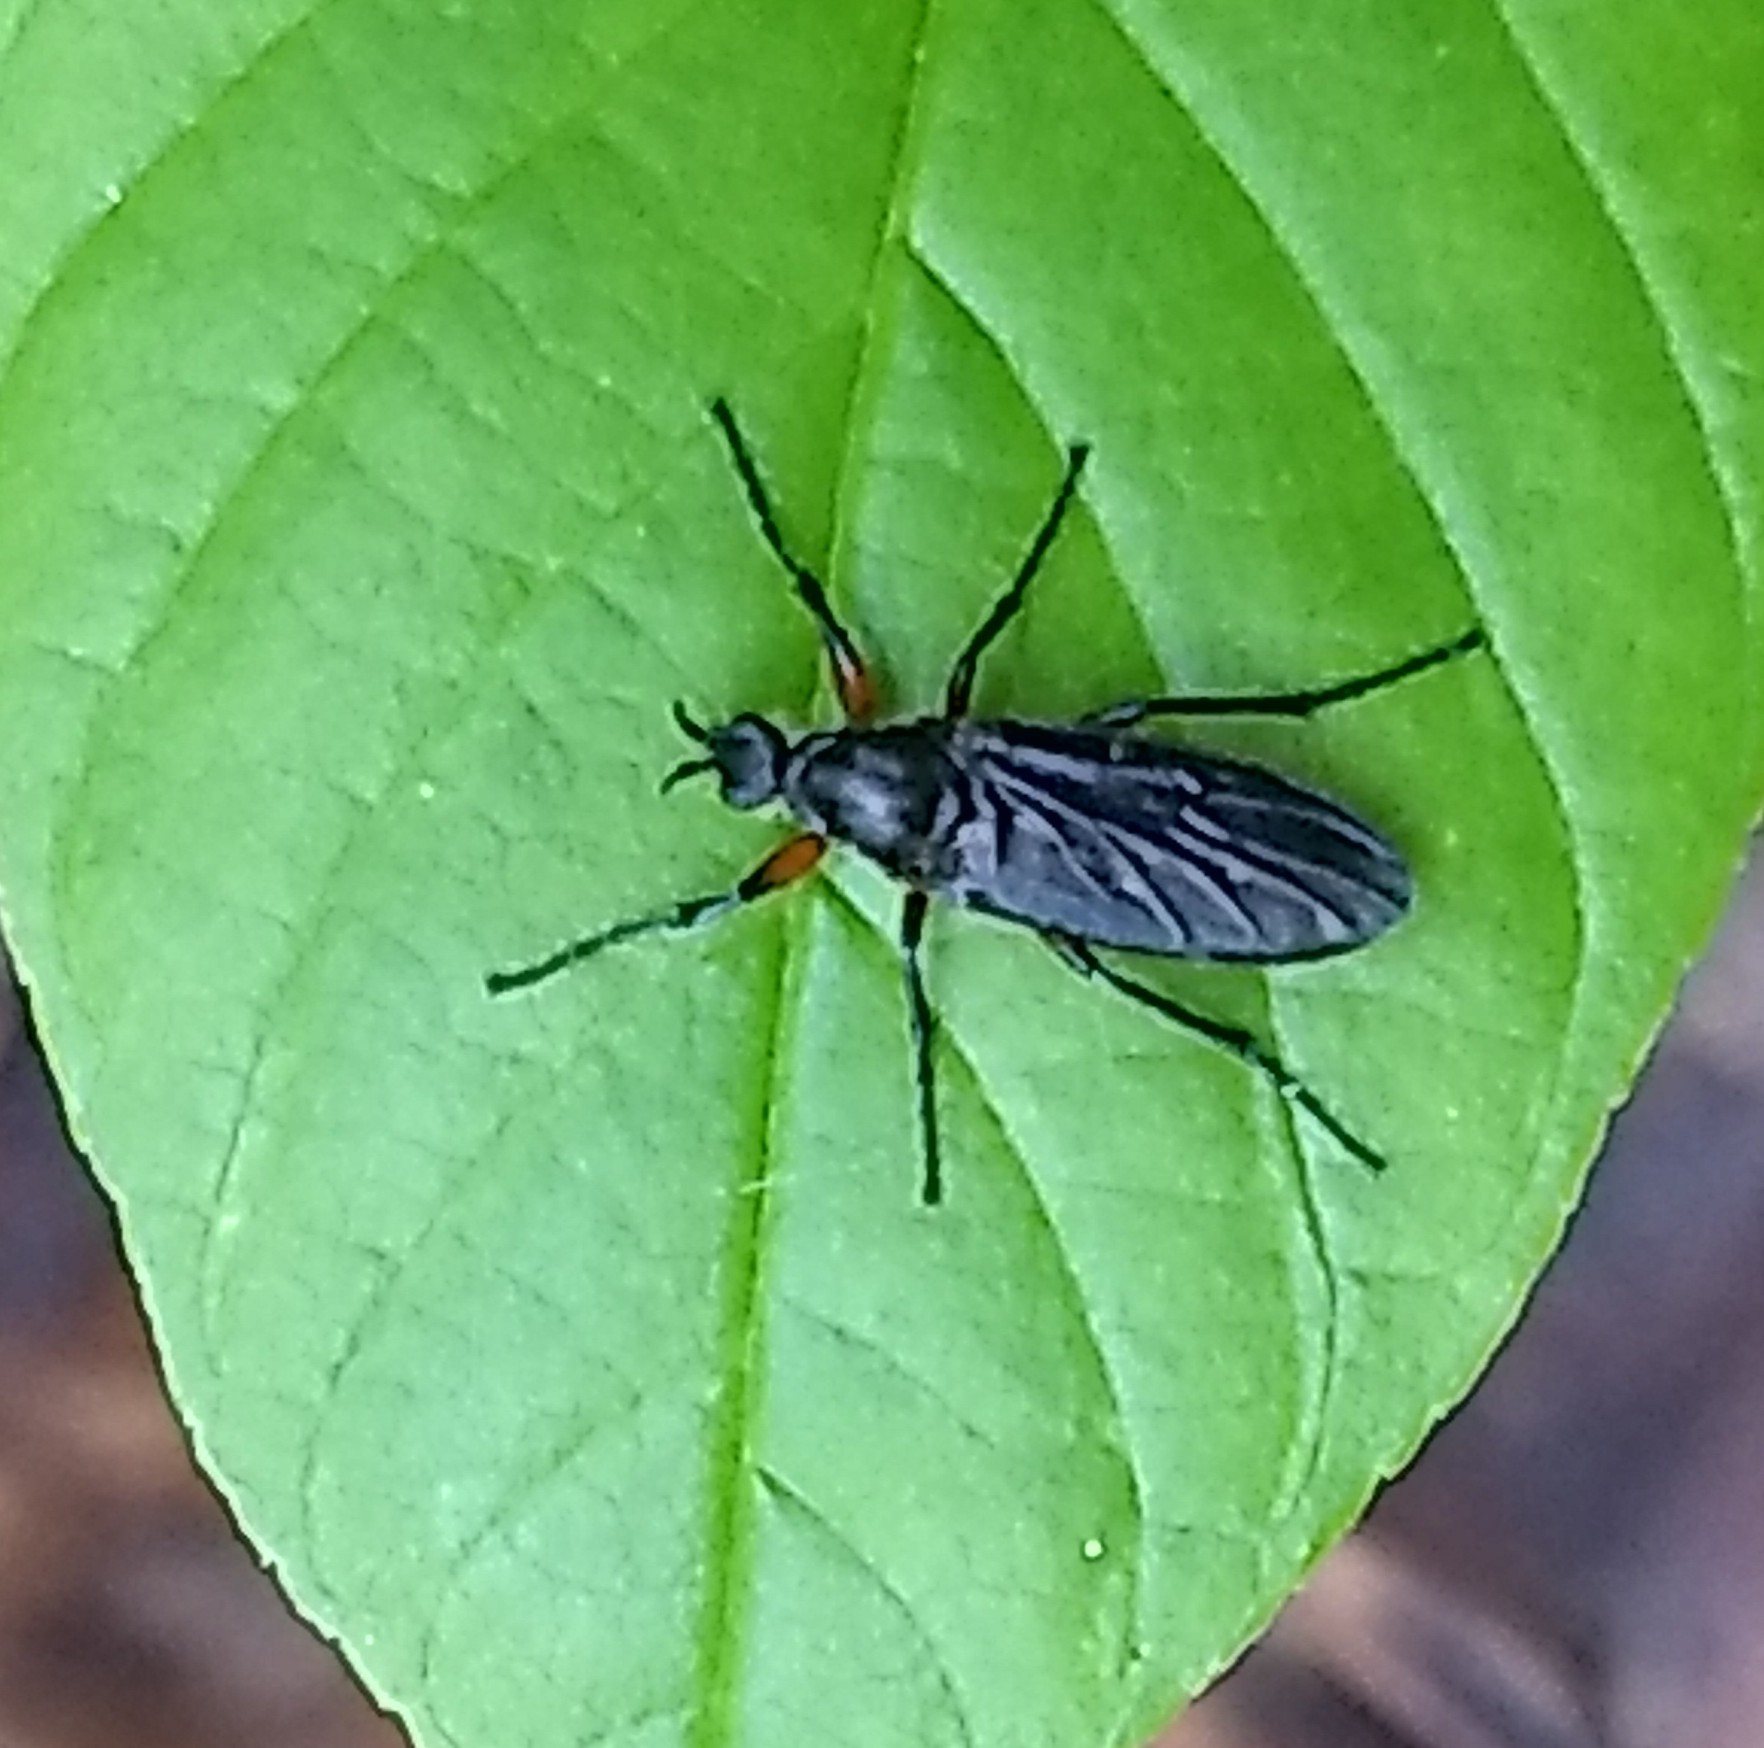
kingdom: Animalia
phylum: Arthropoda
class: Insecta
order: Diptera
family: Bibionidae
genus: Bibio
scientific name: Bibio
